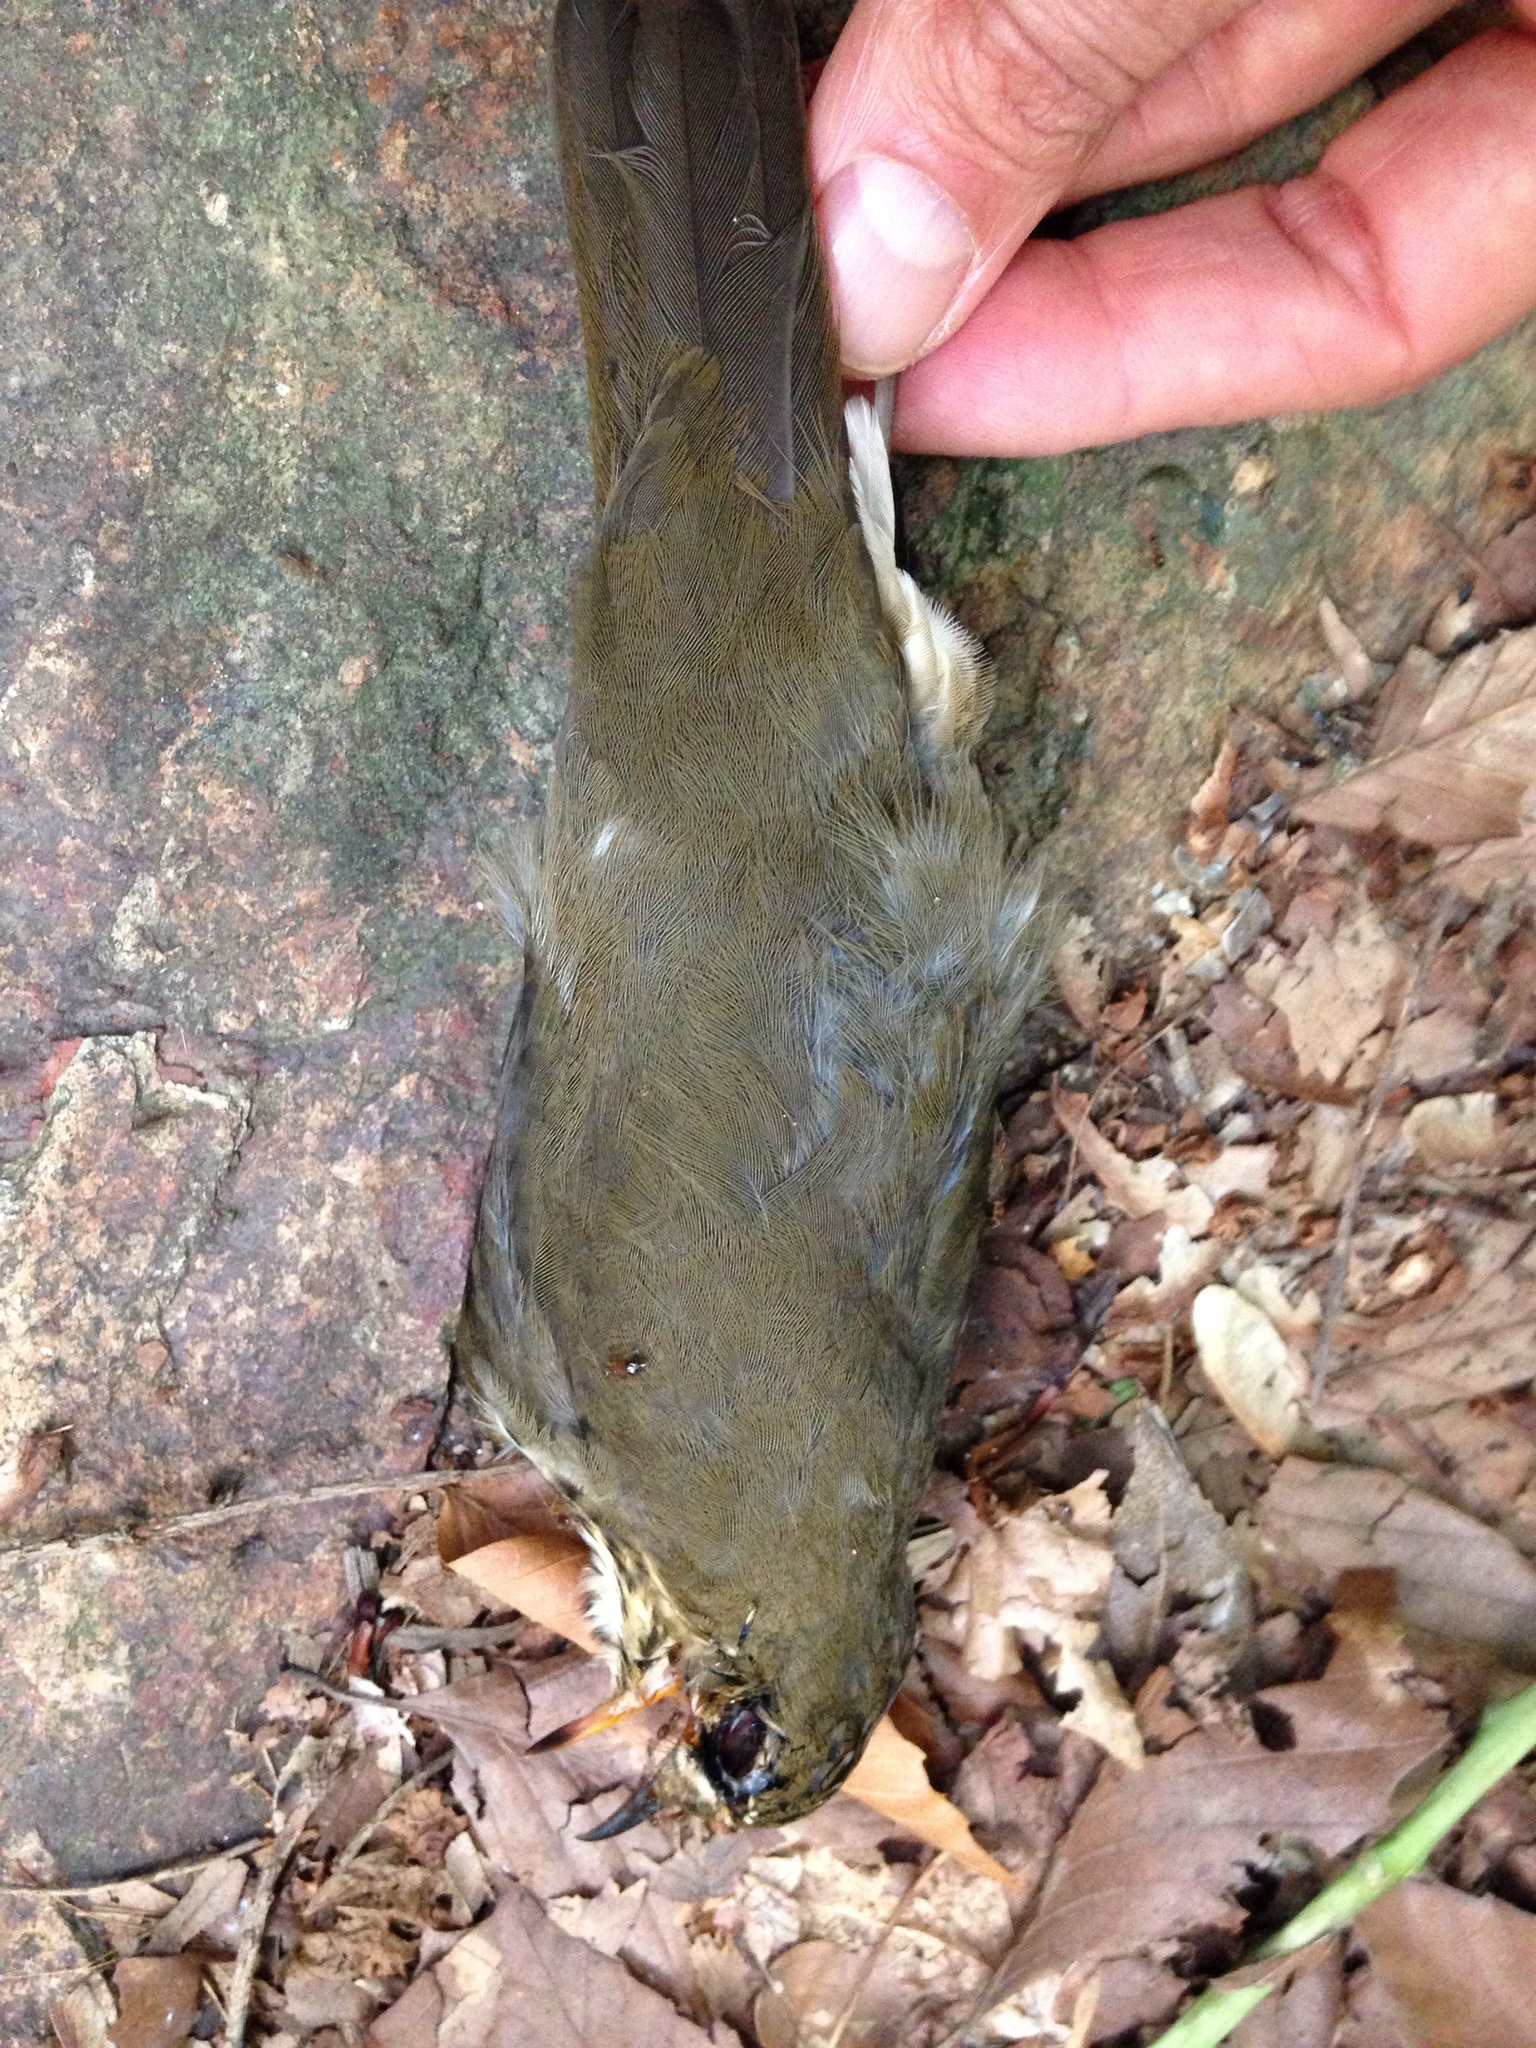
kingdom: Animalia
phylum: Chordata
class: Aves
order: Passeriformes
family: Turdidae
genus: Catharus
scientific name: Catharus ustulatus
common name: Swainson's thrush
